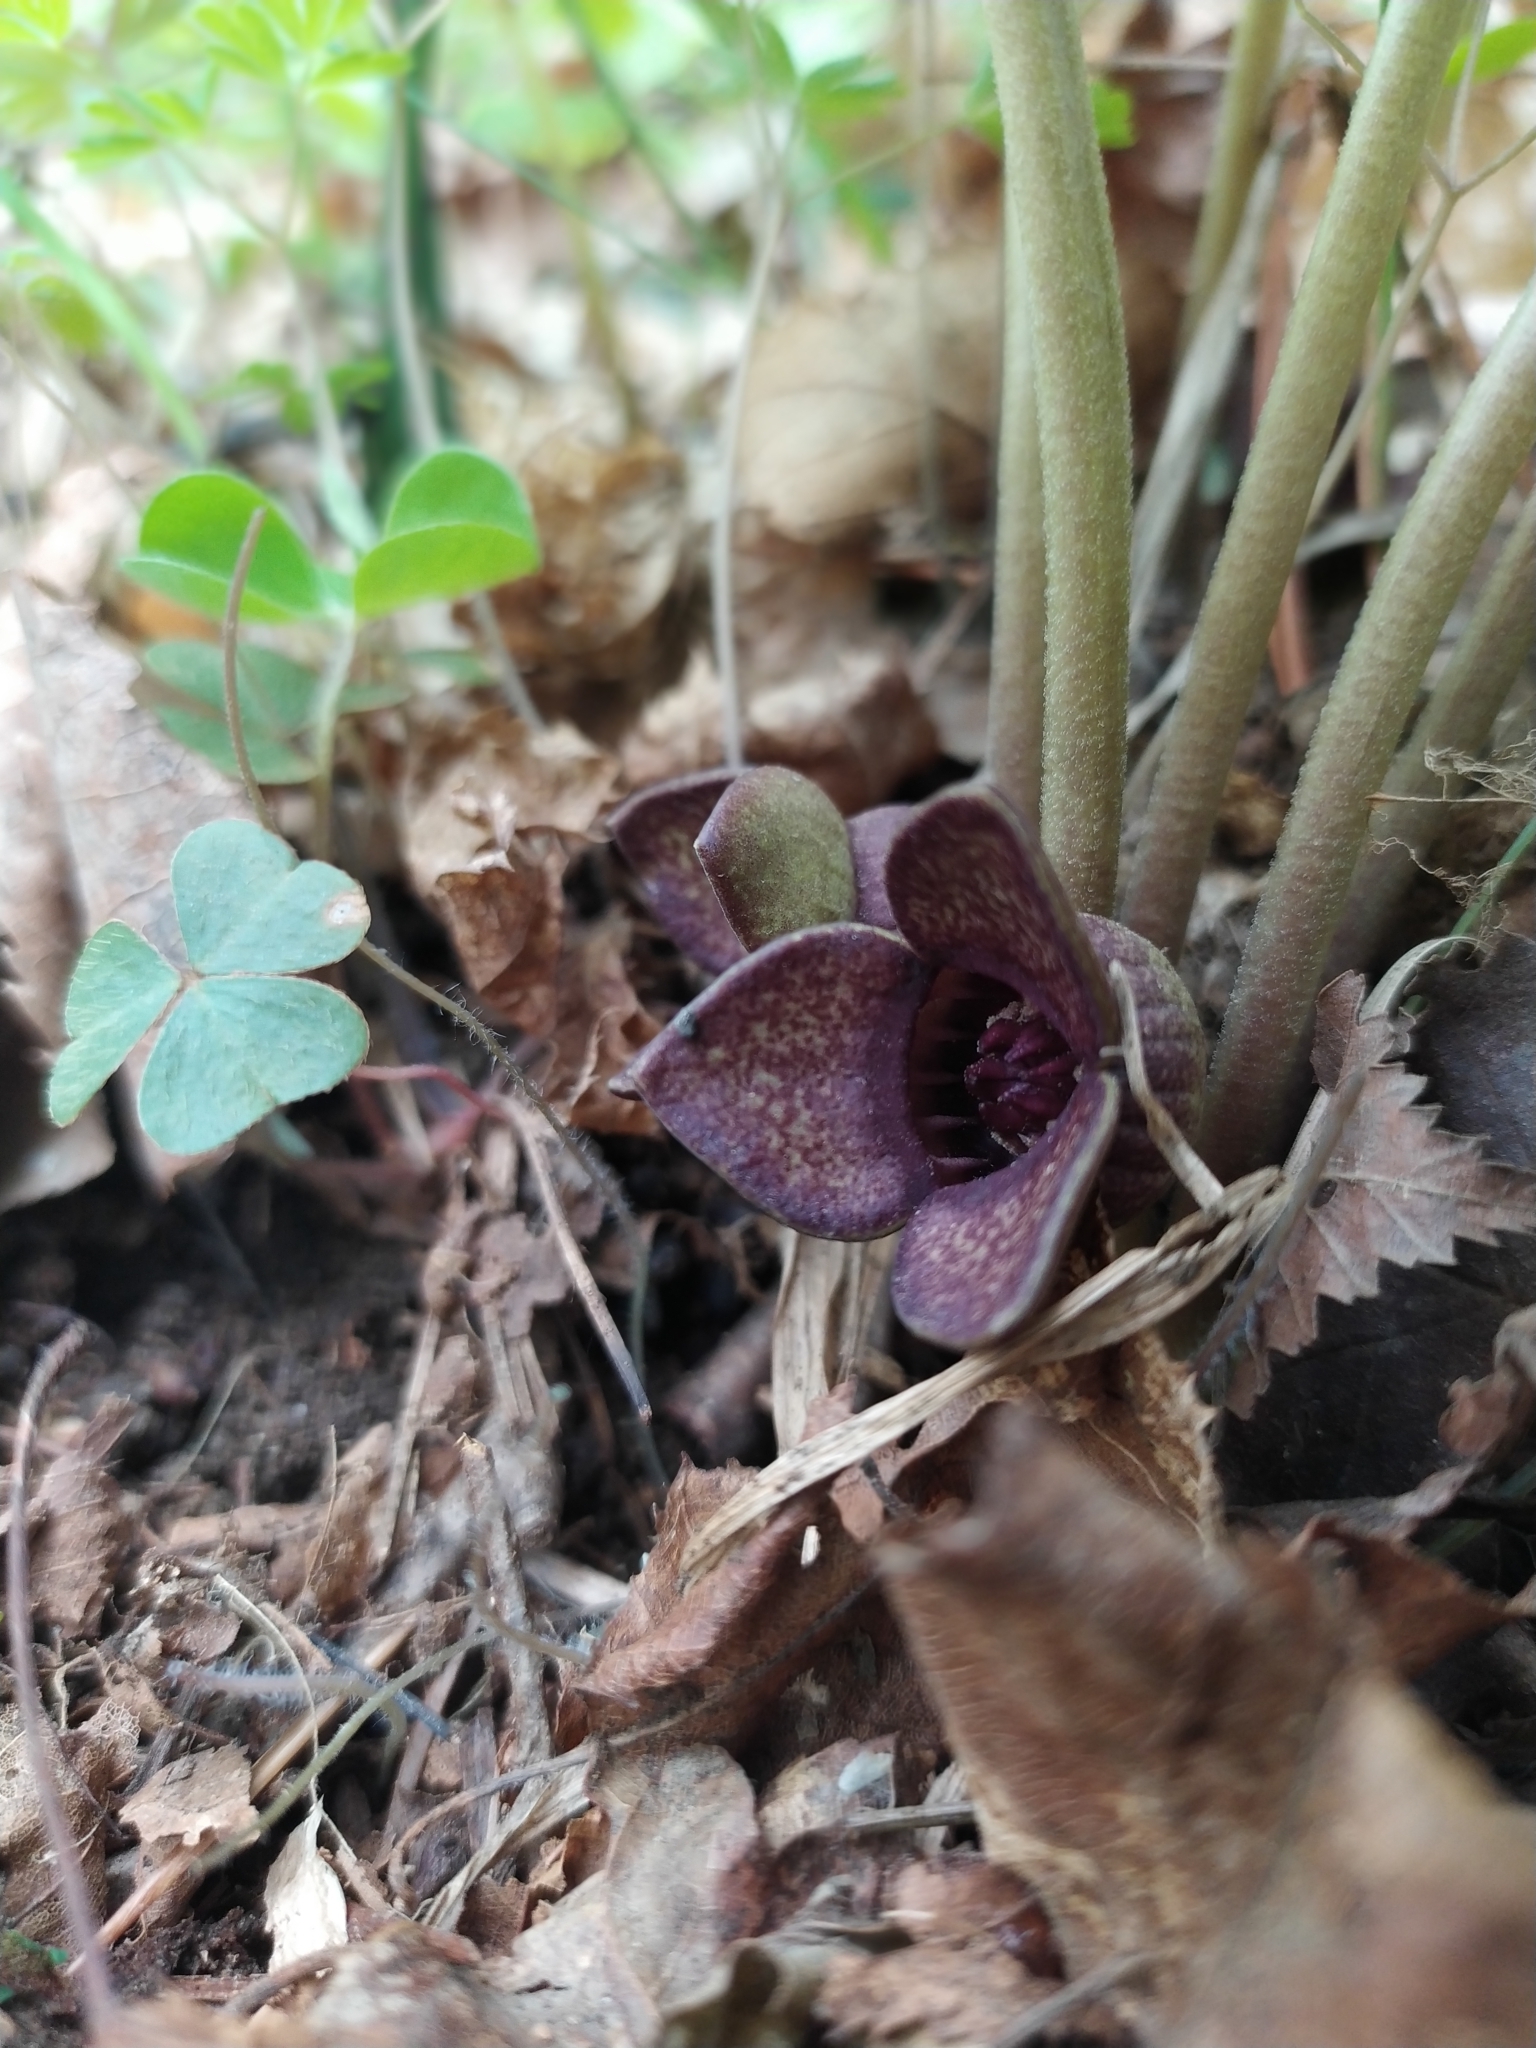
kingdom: Plantae
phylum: Tracheophyta
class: Magnoliopsida
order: Piperales
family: Aristolochiaceae
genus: Asarum
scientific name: Asarum sieboldii
